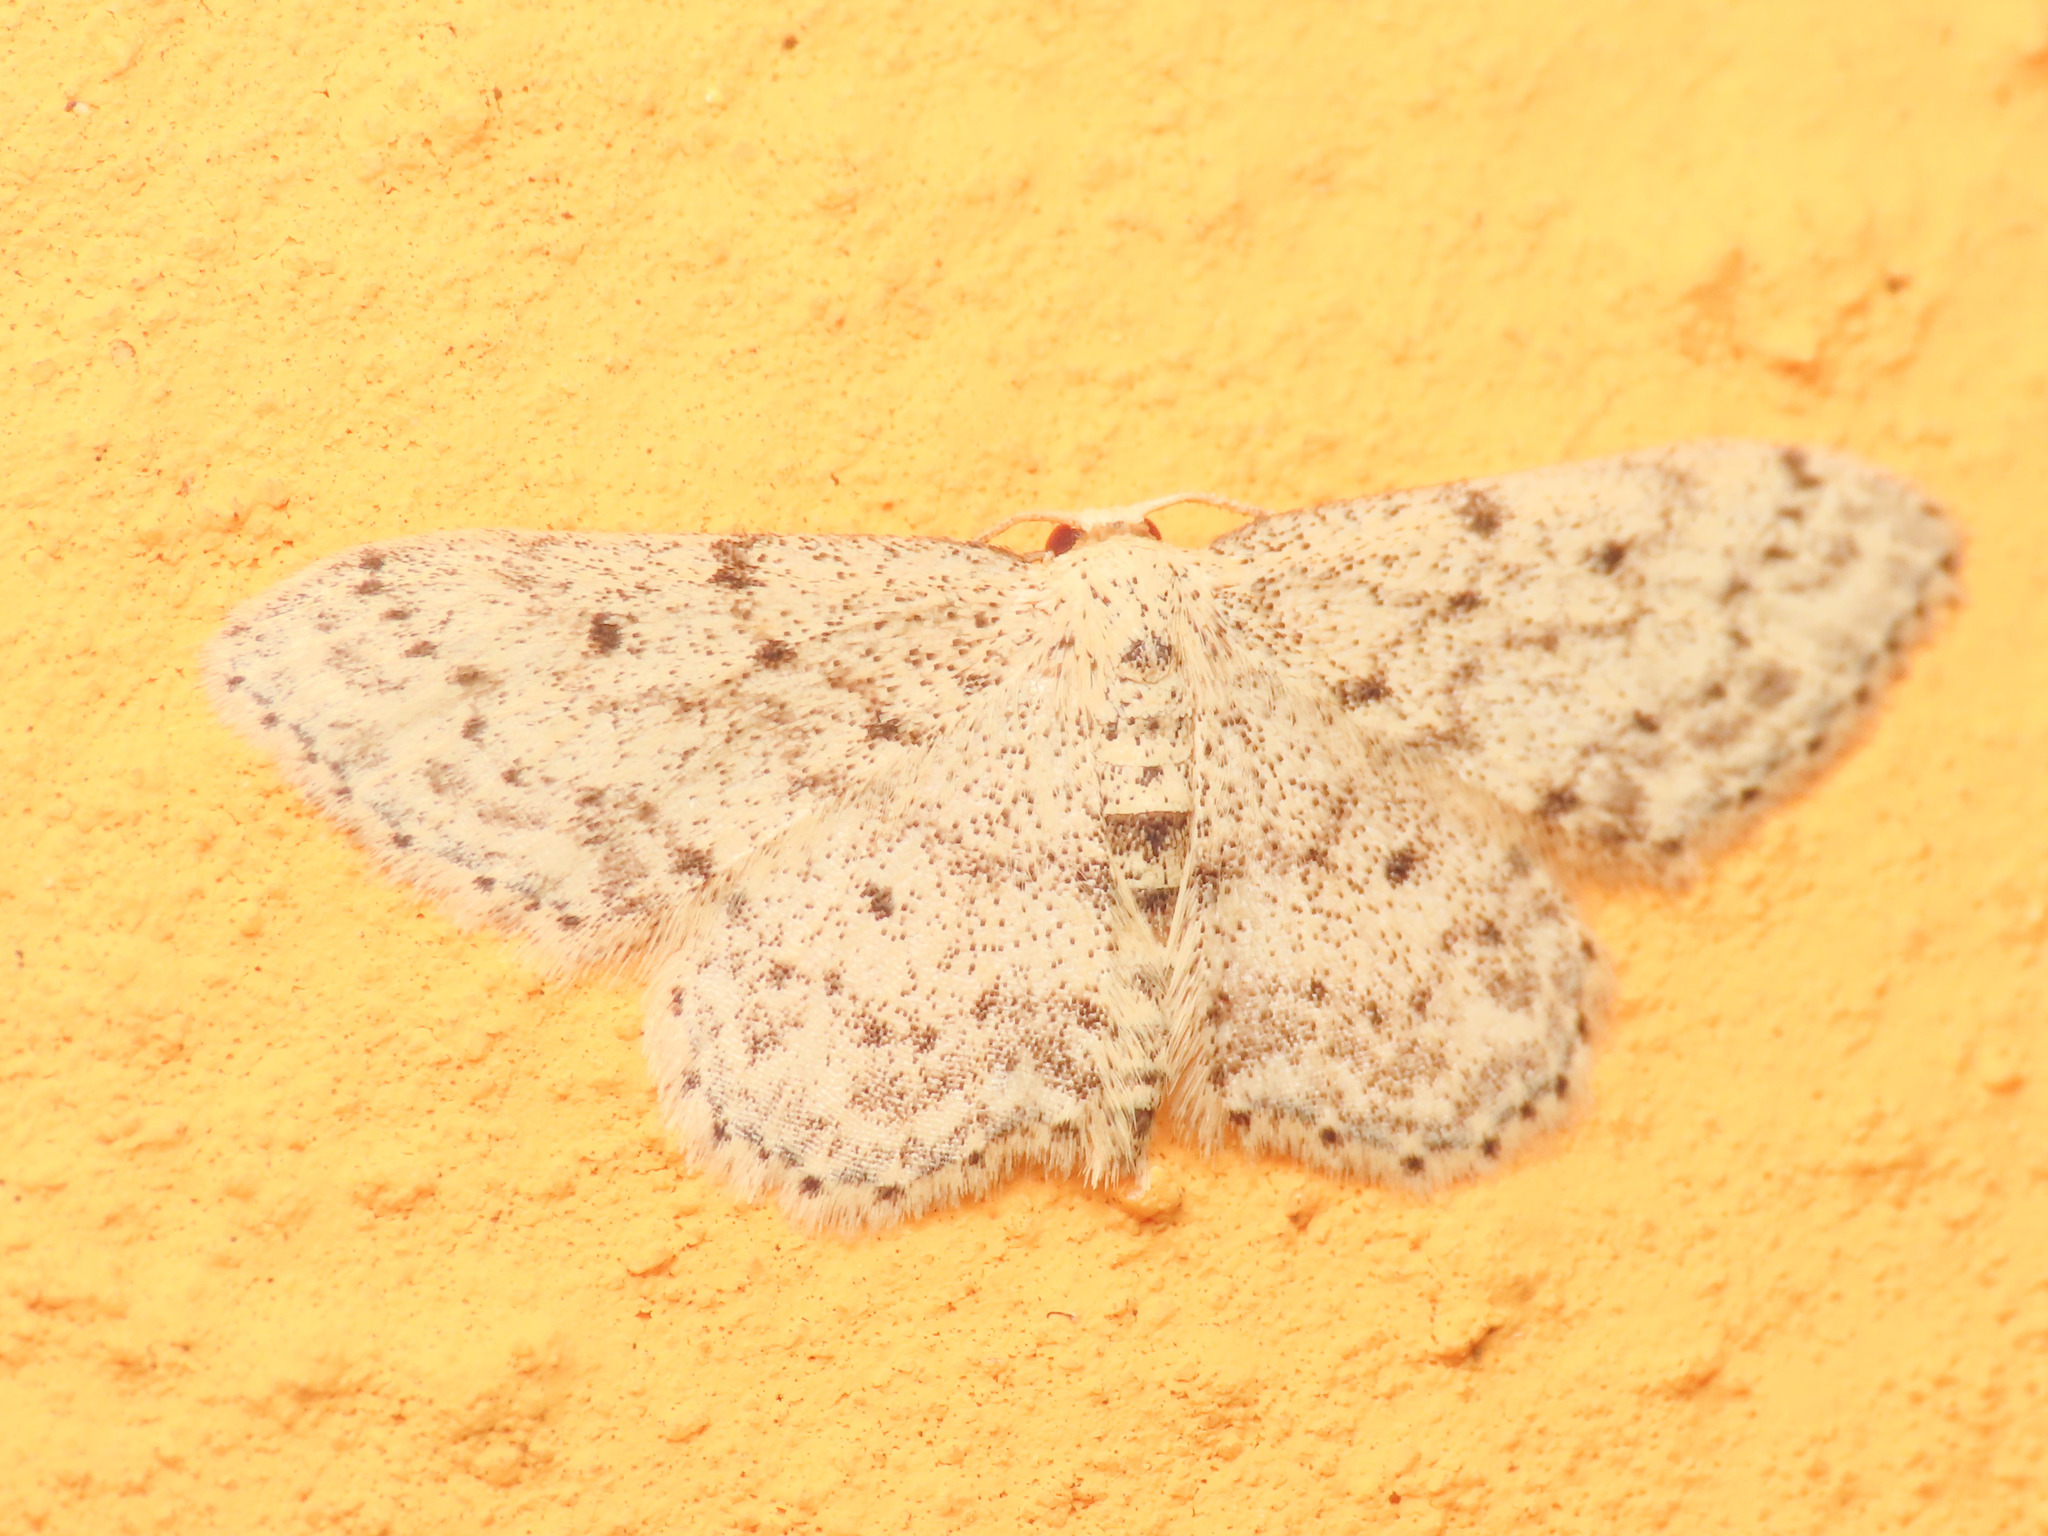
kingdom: Animalia
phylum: Arthropoda
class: Insecta
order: Lepidoptera
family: Geometridae
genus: Idaea
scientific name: Idaea seriata
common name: Small dusty wave
